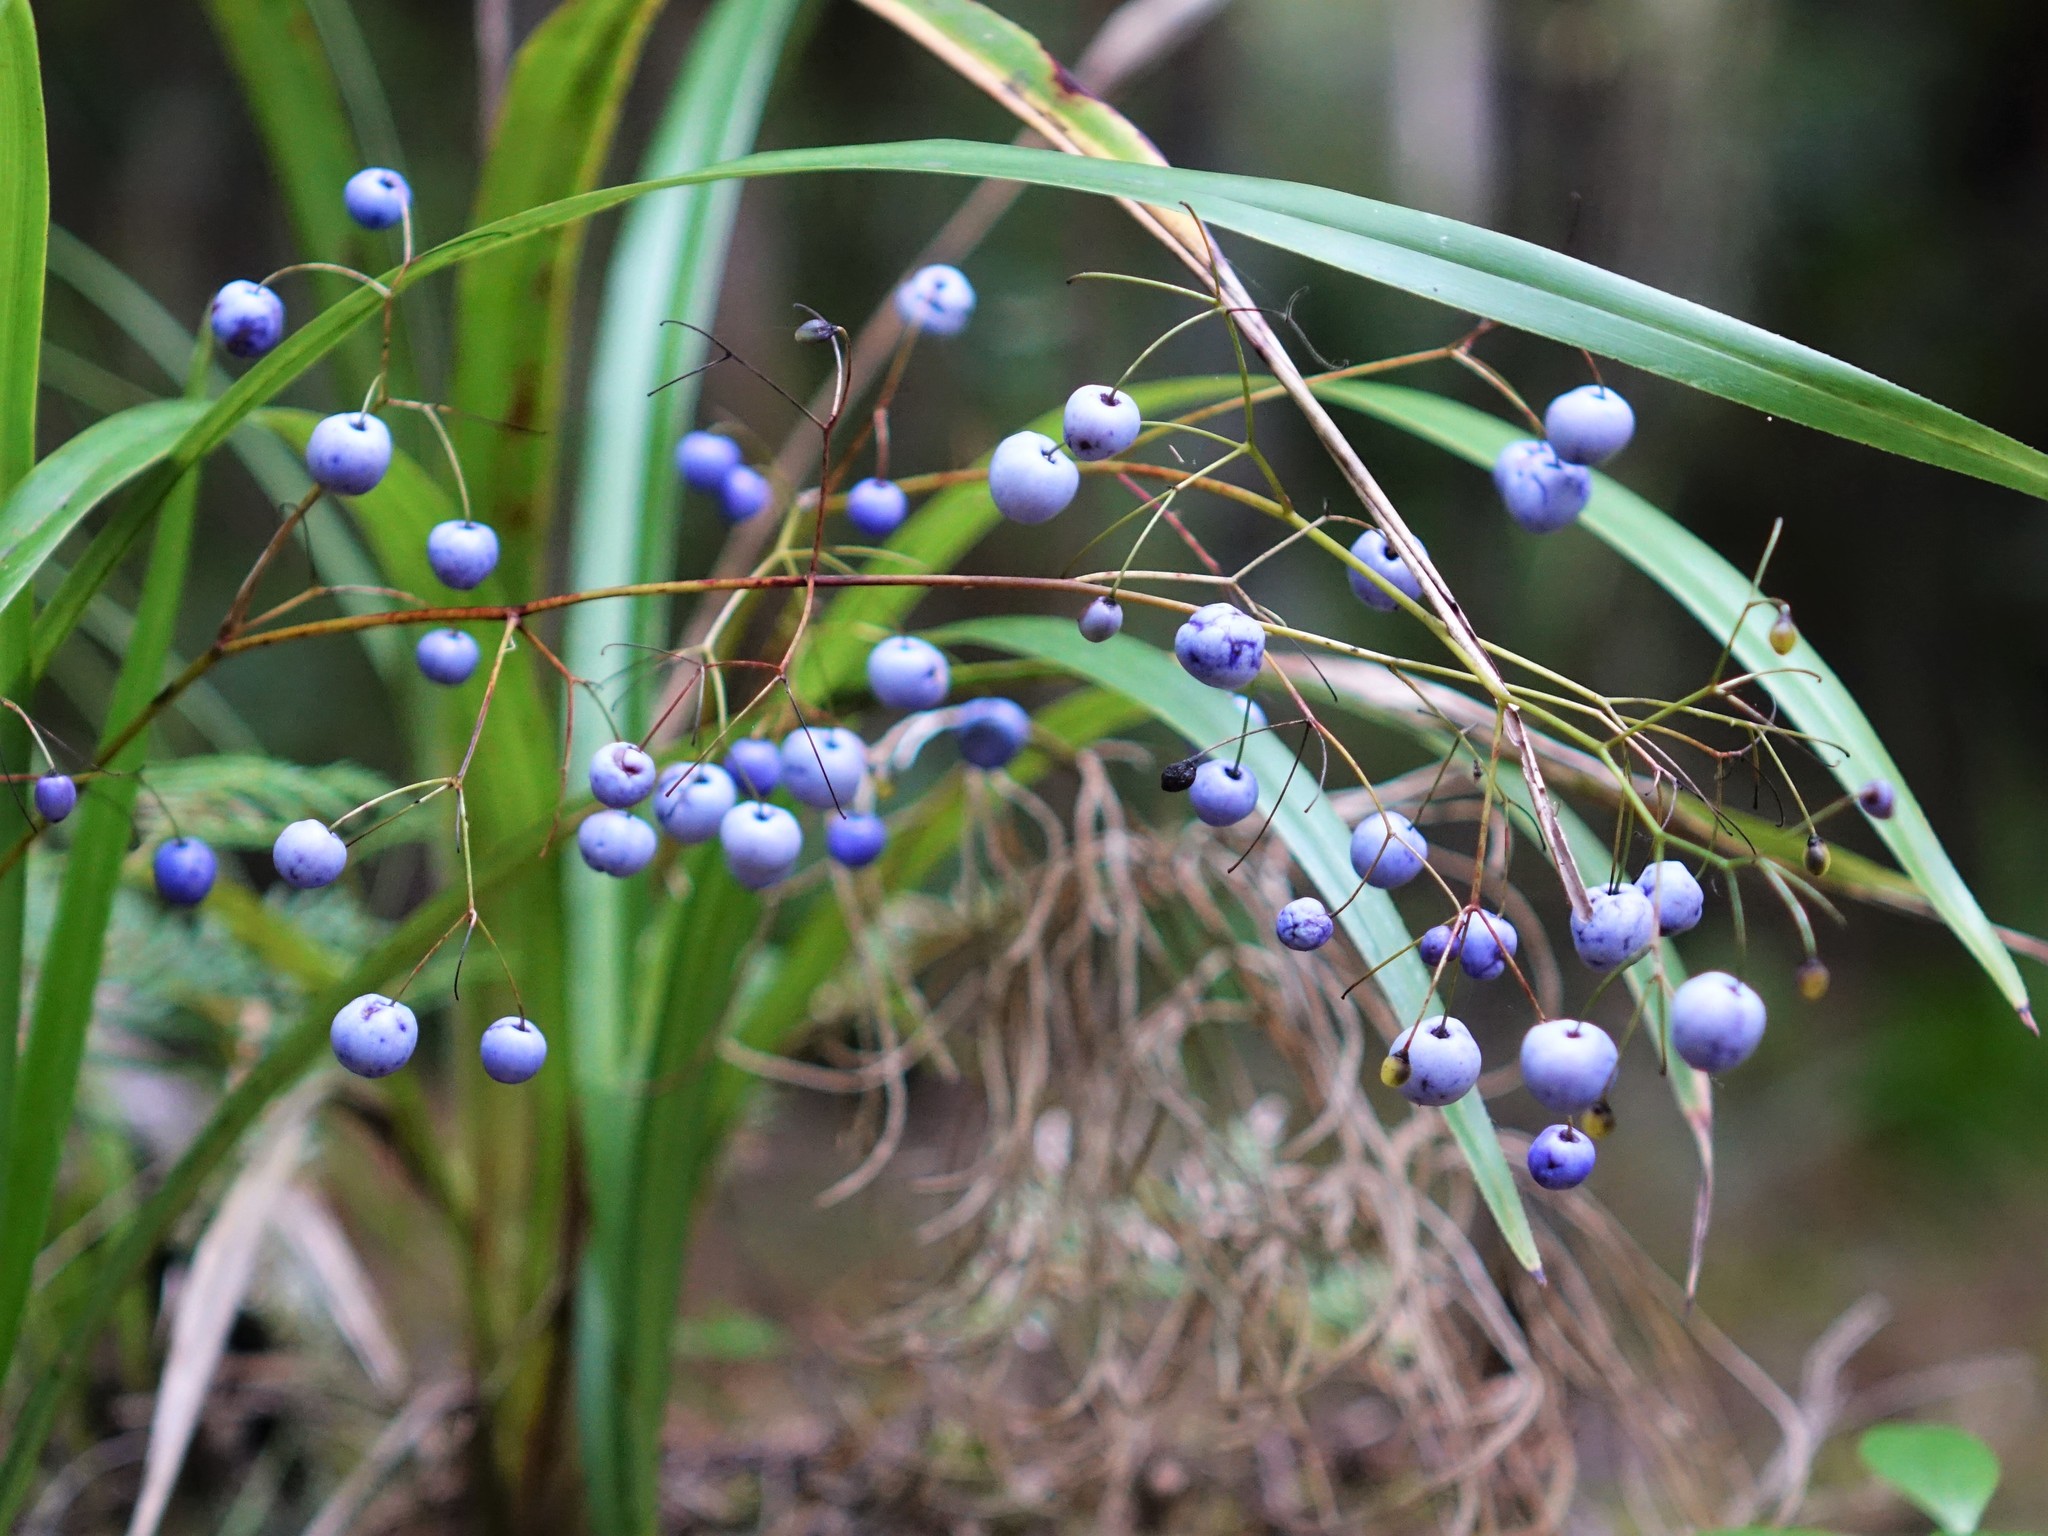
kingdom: Plantae
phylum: Tracheophyta
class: Liliopsida
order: Asparagales
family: Asphodelaceae
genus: Dianella
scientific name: Dianella nigra
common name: New zealand-blueberry
